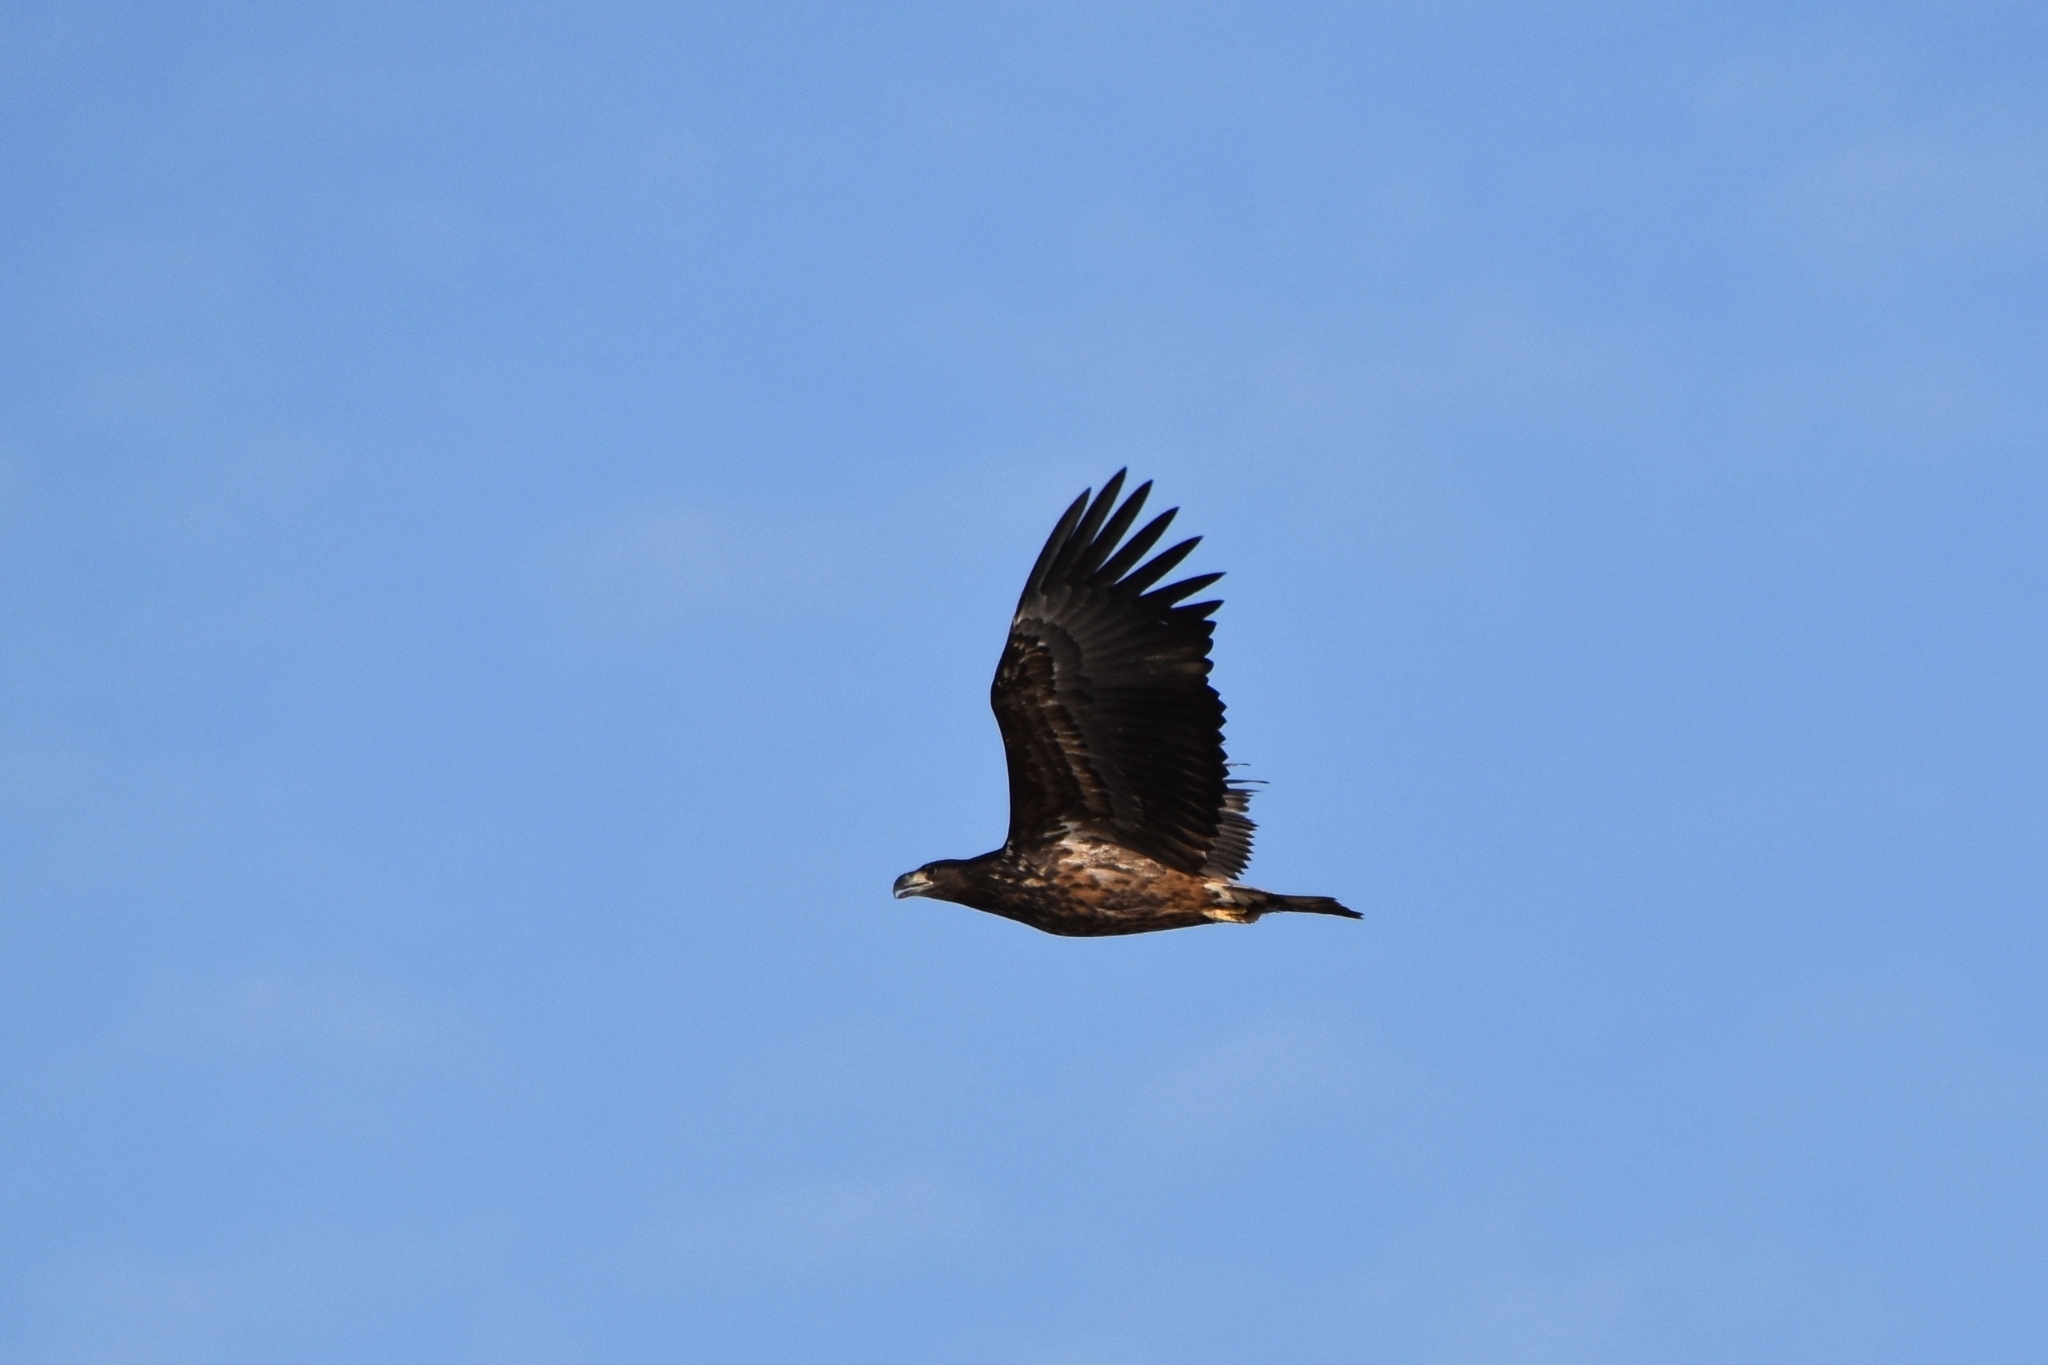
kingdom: Animalia
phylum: Chordata
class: Aves
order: Accipitriformes
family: Accipitridae
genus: Haliaeetus
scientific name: Haliaeetus albicilla
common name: White-tailed eagle
